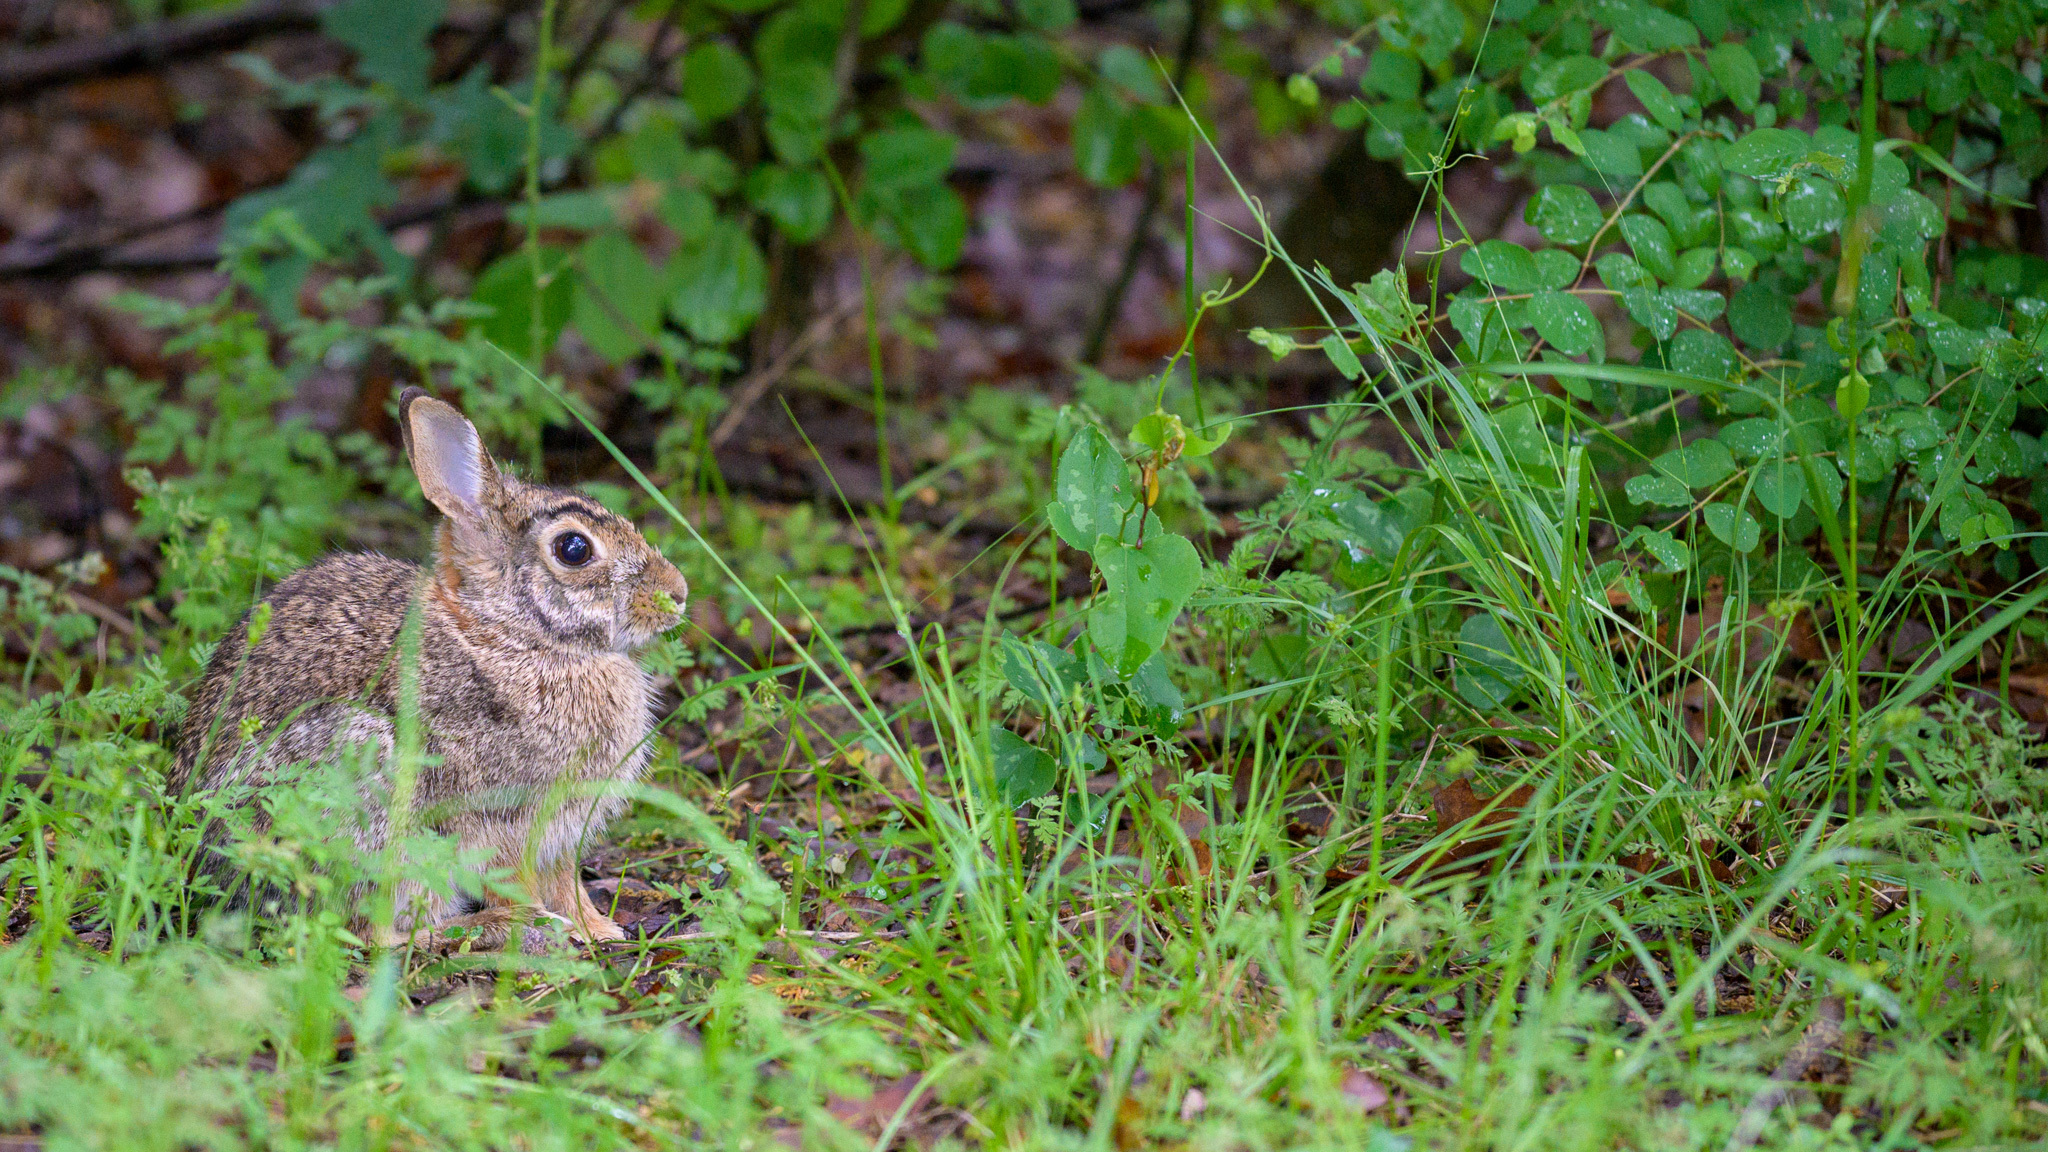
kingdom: Animalia
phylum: Chordata
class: Mammalia
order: Lagomorpha
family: Leporidae
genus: Sylvilagus
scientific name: Sylvilagus floridanus
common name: Eastern cottontail
